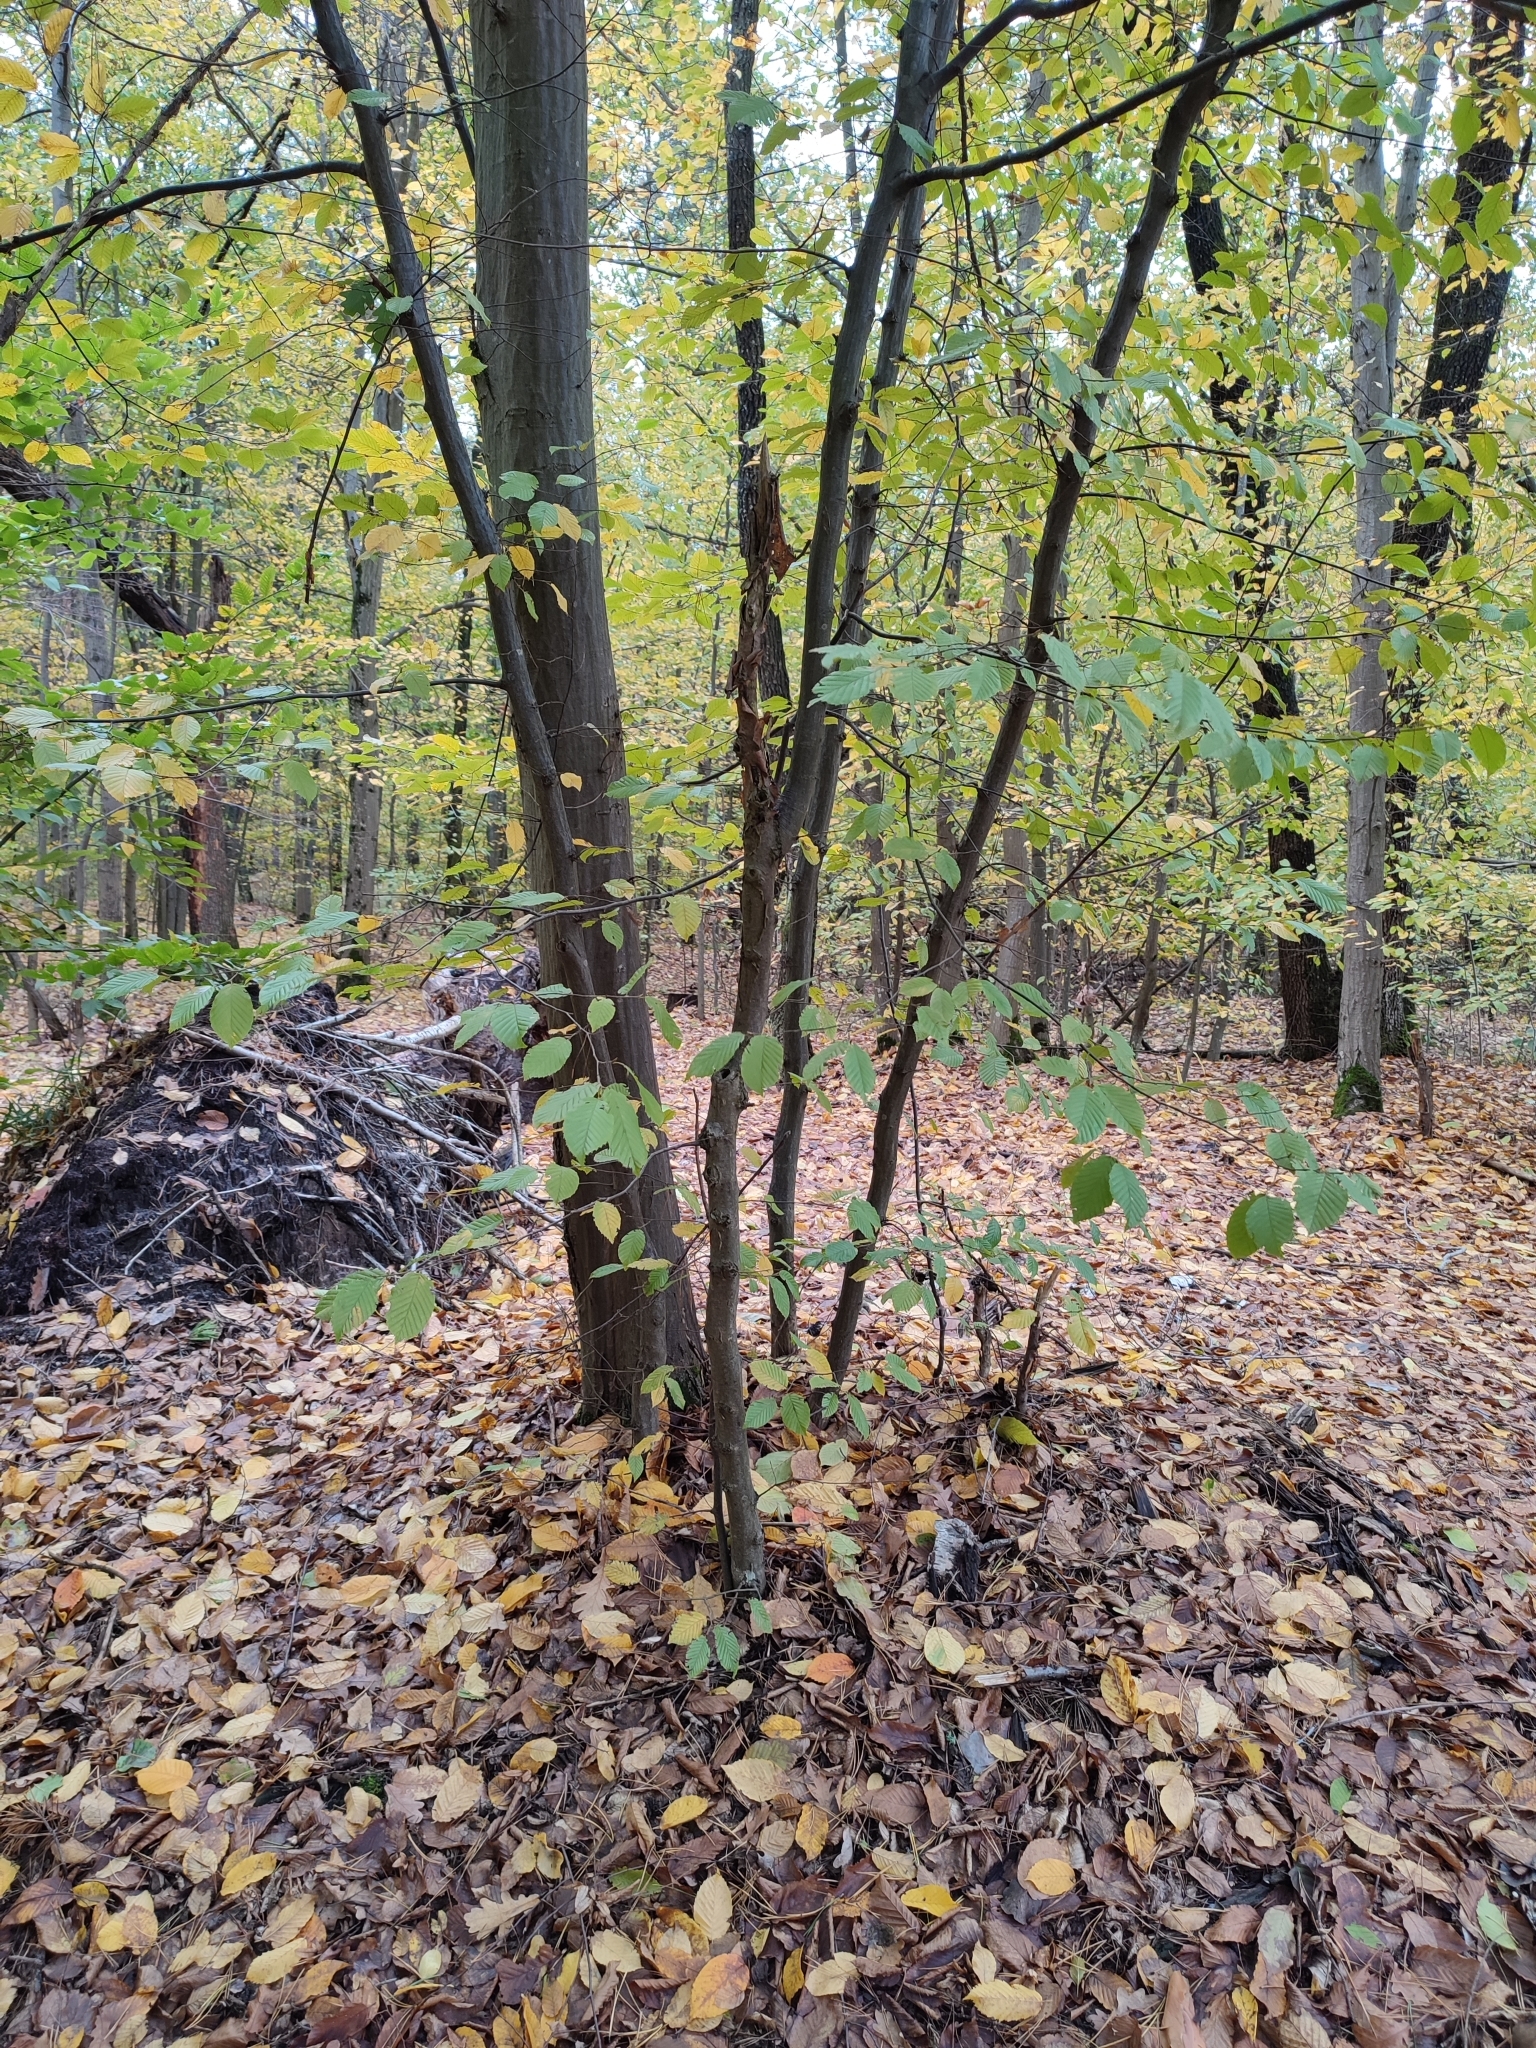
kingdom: Plantae
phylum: Tracheophyta
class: Magnoliopsida
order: Fagales
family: Betulaceae
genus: Carpinus
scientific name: Carpinus betulus
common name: Hornbeam
